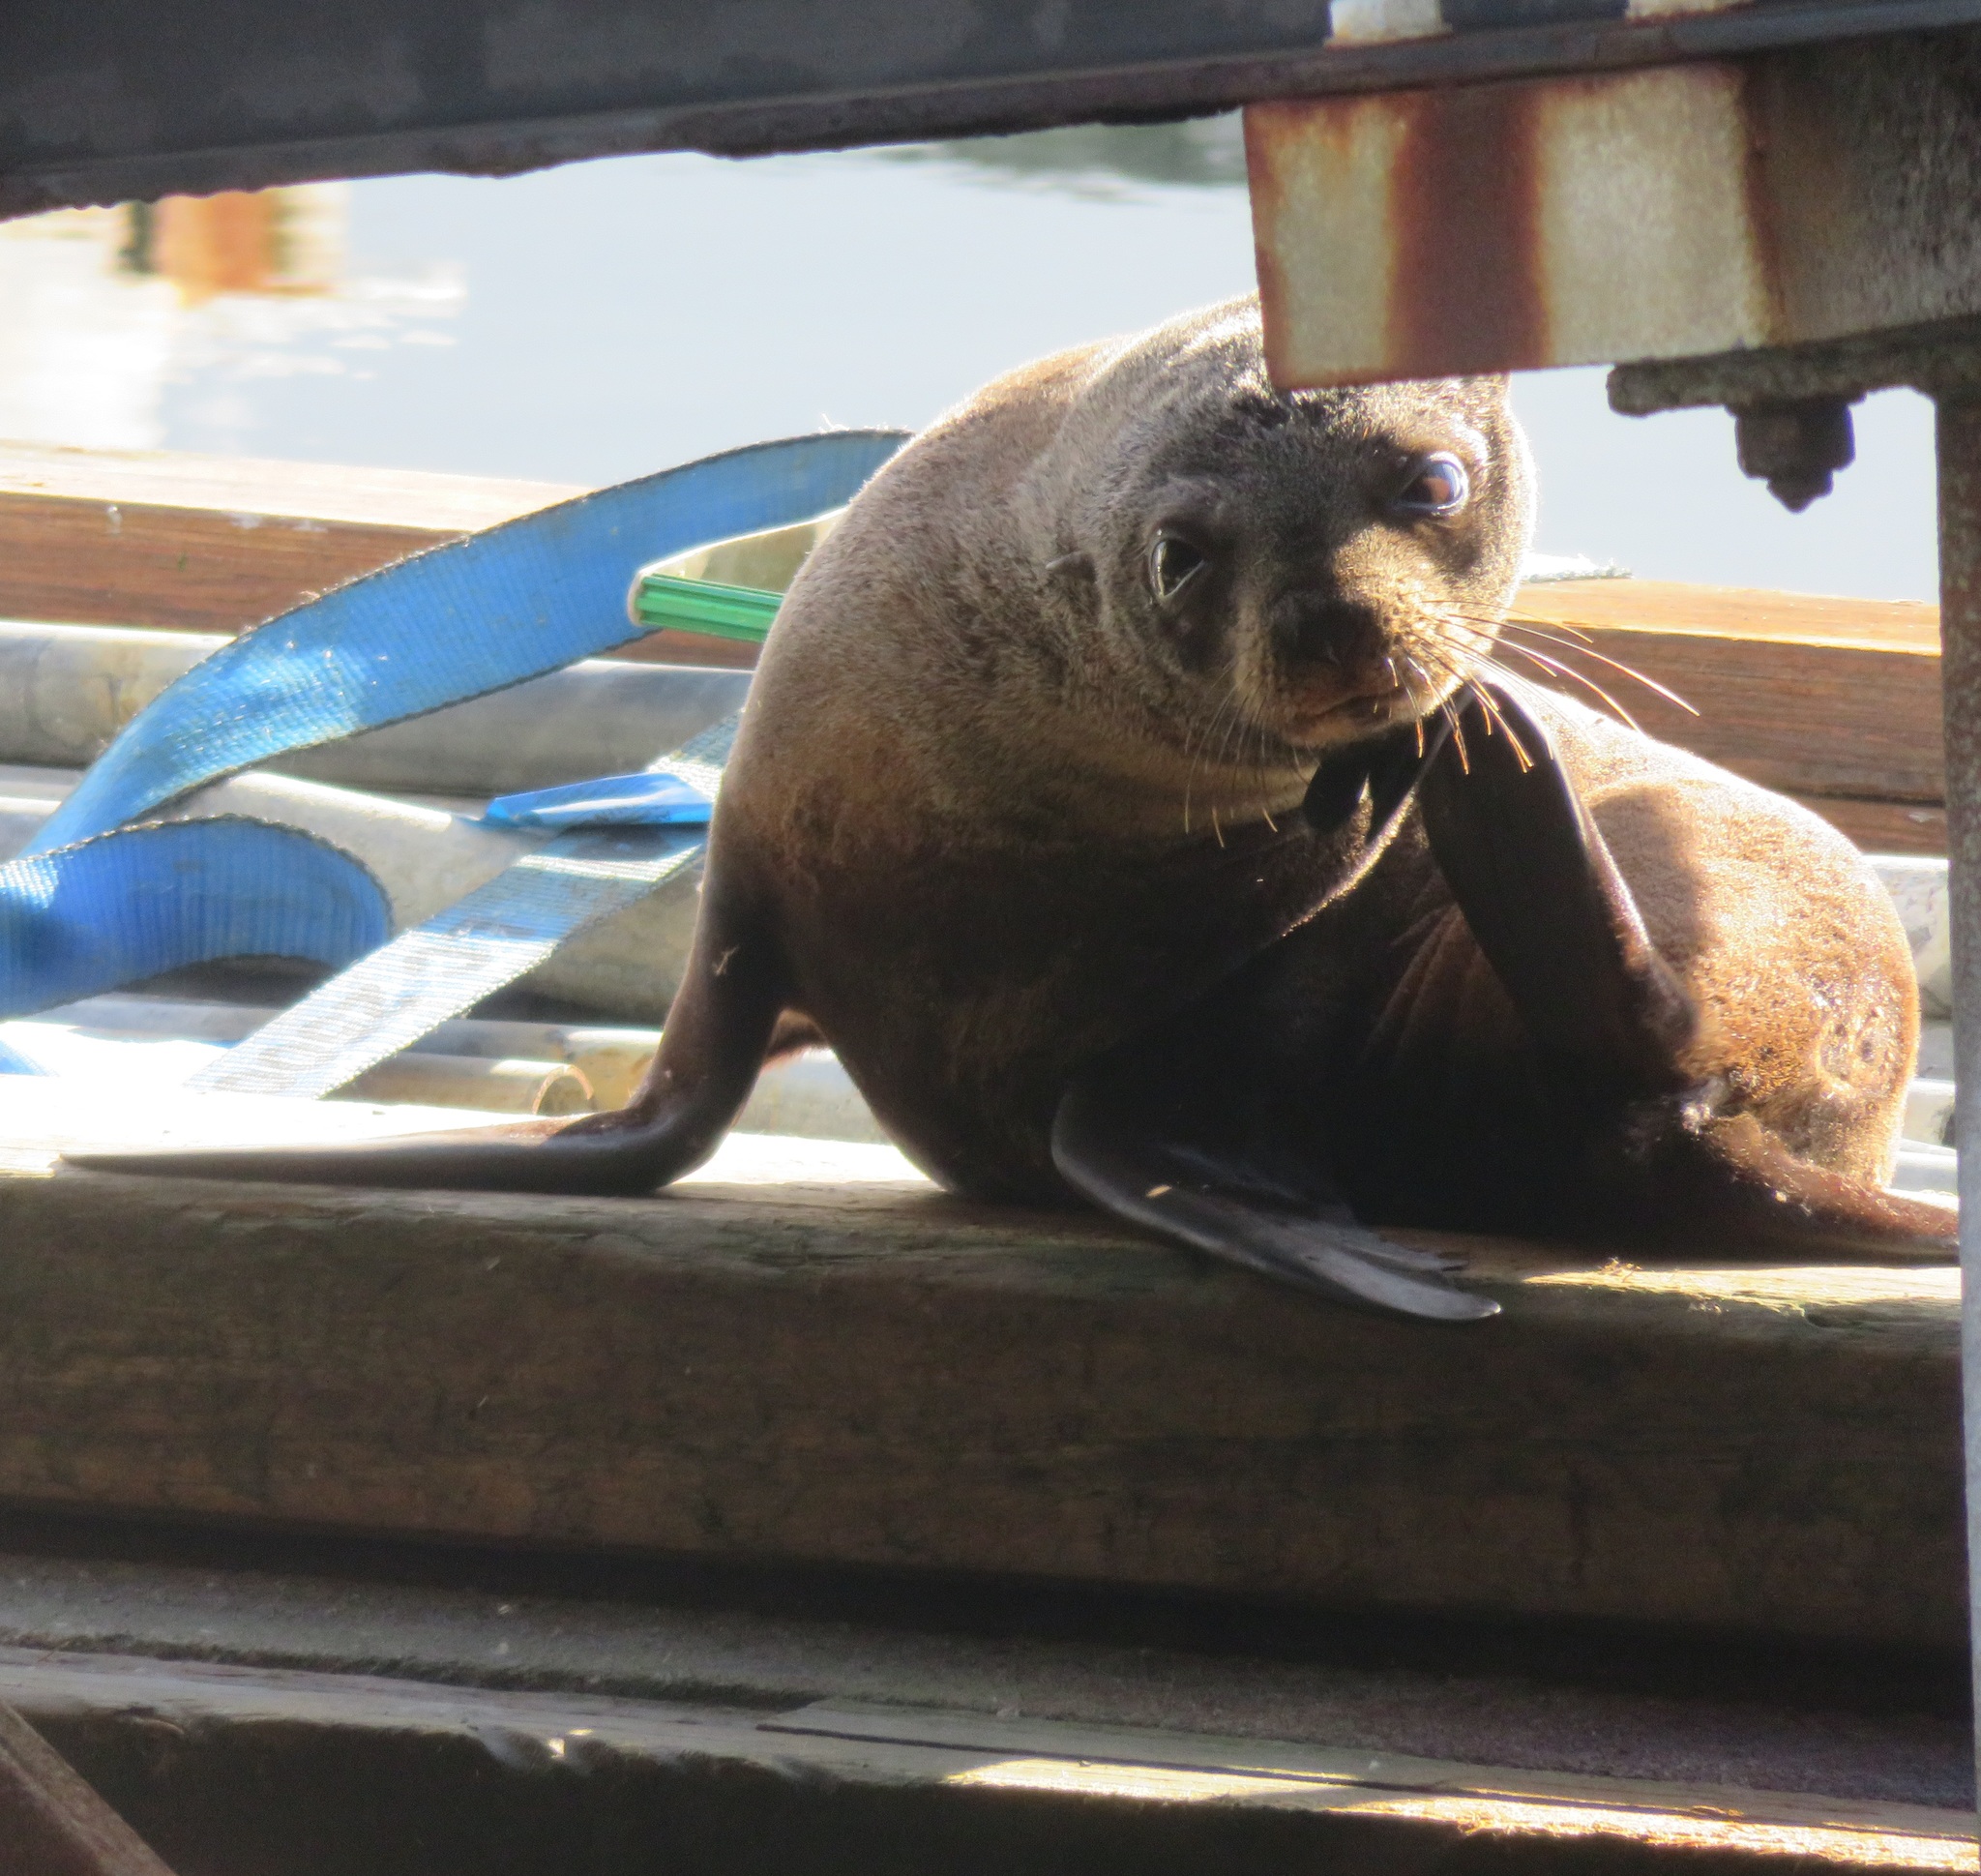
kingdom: Animalia
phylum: Chordata
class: Mammalia
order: Carnivora
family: Otariidae
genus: Arctocephalus
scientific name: Arctocephalus forsteri
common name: New zealand fur seal
